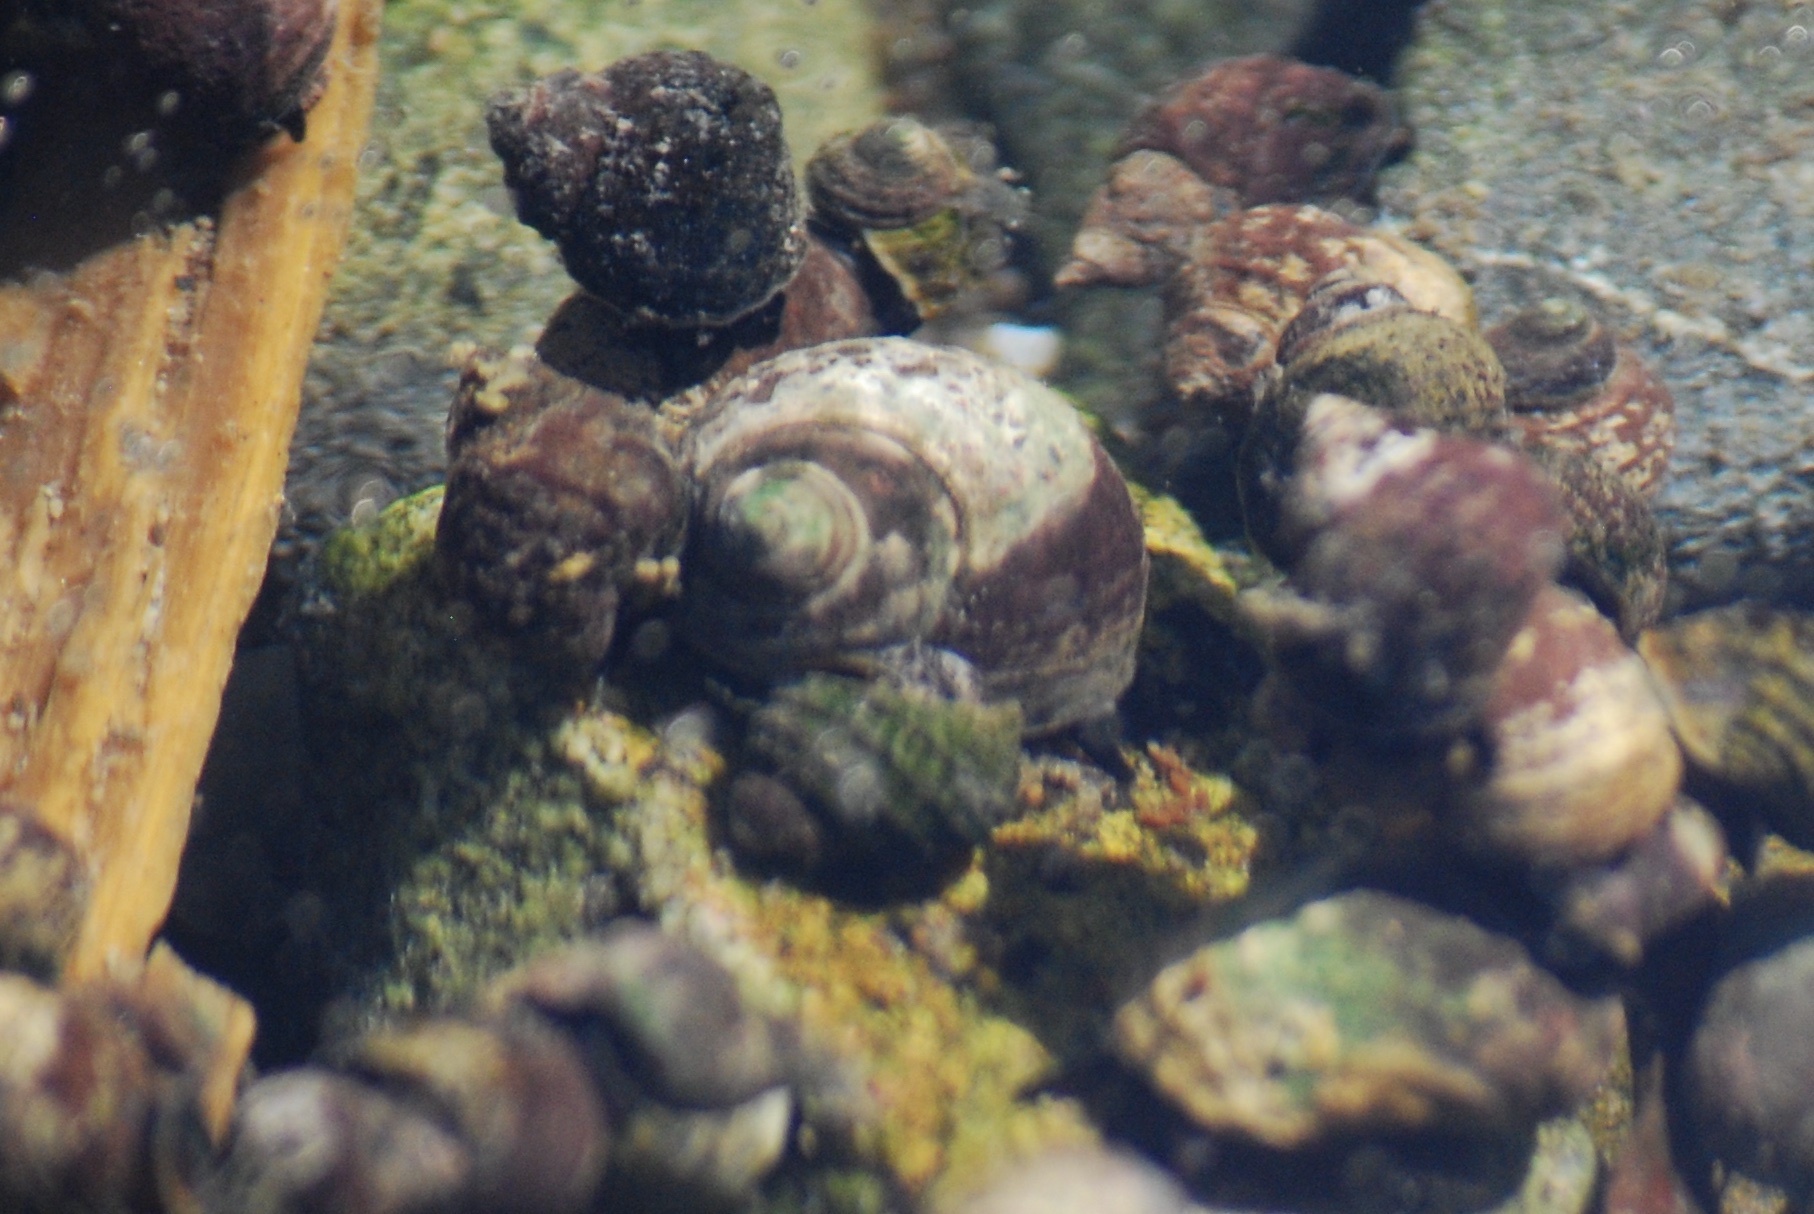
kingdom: Animalia
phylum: Mollusca
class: Gastropoda
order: Littorinimorpha
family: Littorinidae
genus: Littorina
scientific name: Littorina sitkana
